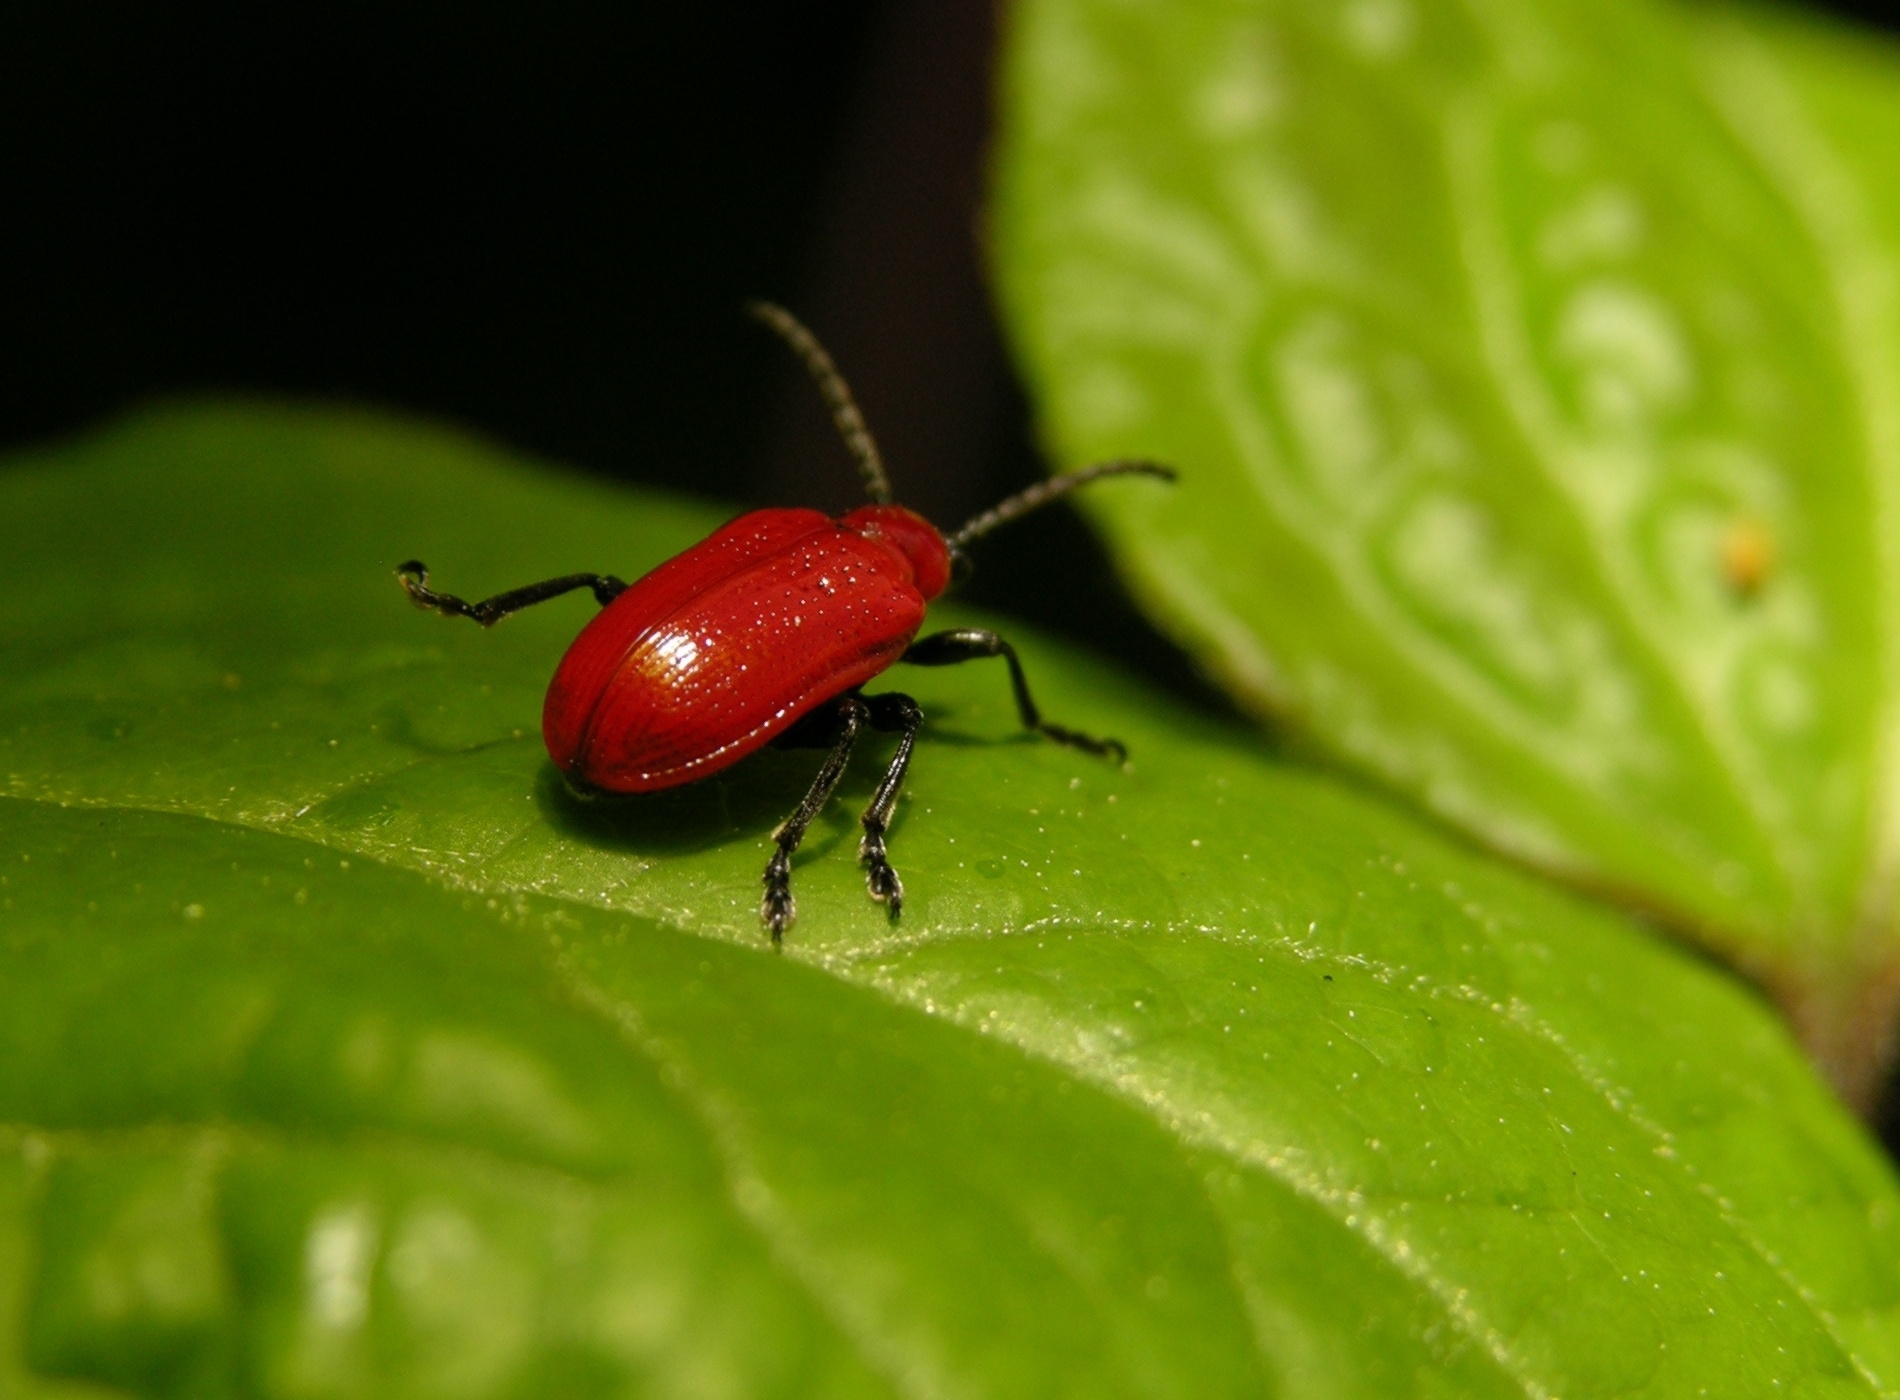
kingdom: Animalia
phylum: Arthropoda
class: Insecta
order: Coleoptera
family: Chrysomelidae
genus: Lilioceris
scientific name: Lilioceris lilii
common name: Lily beetle
